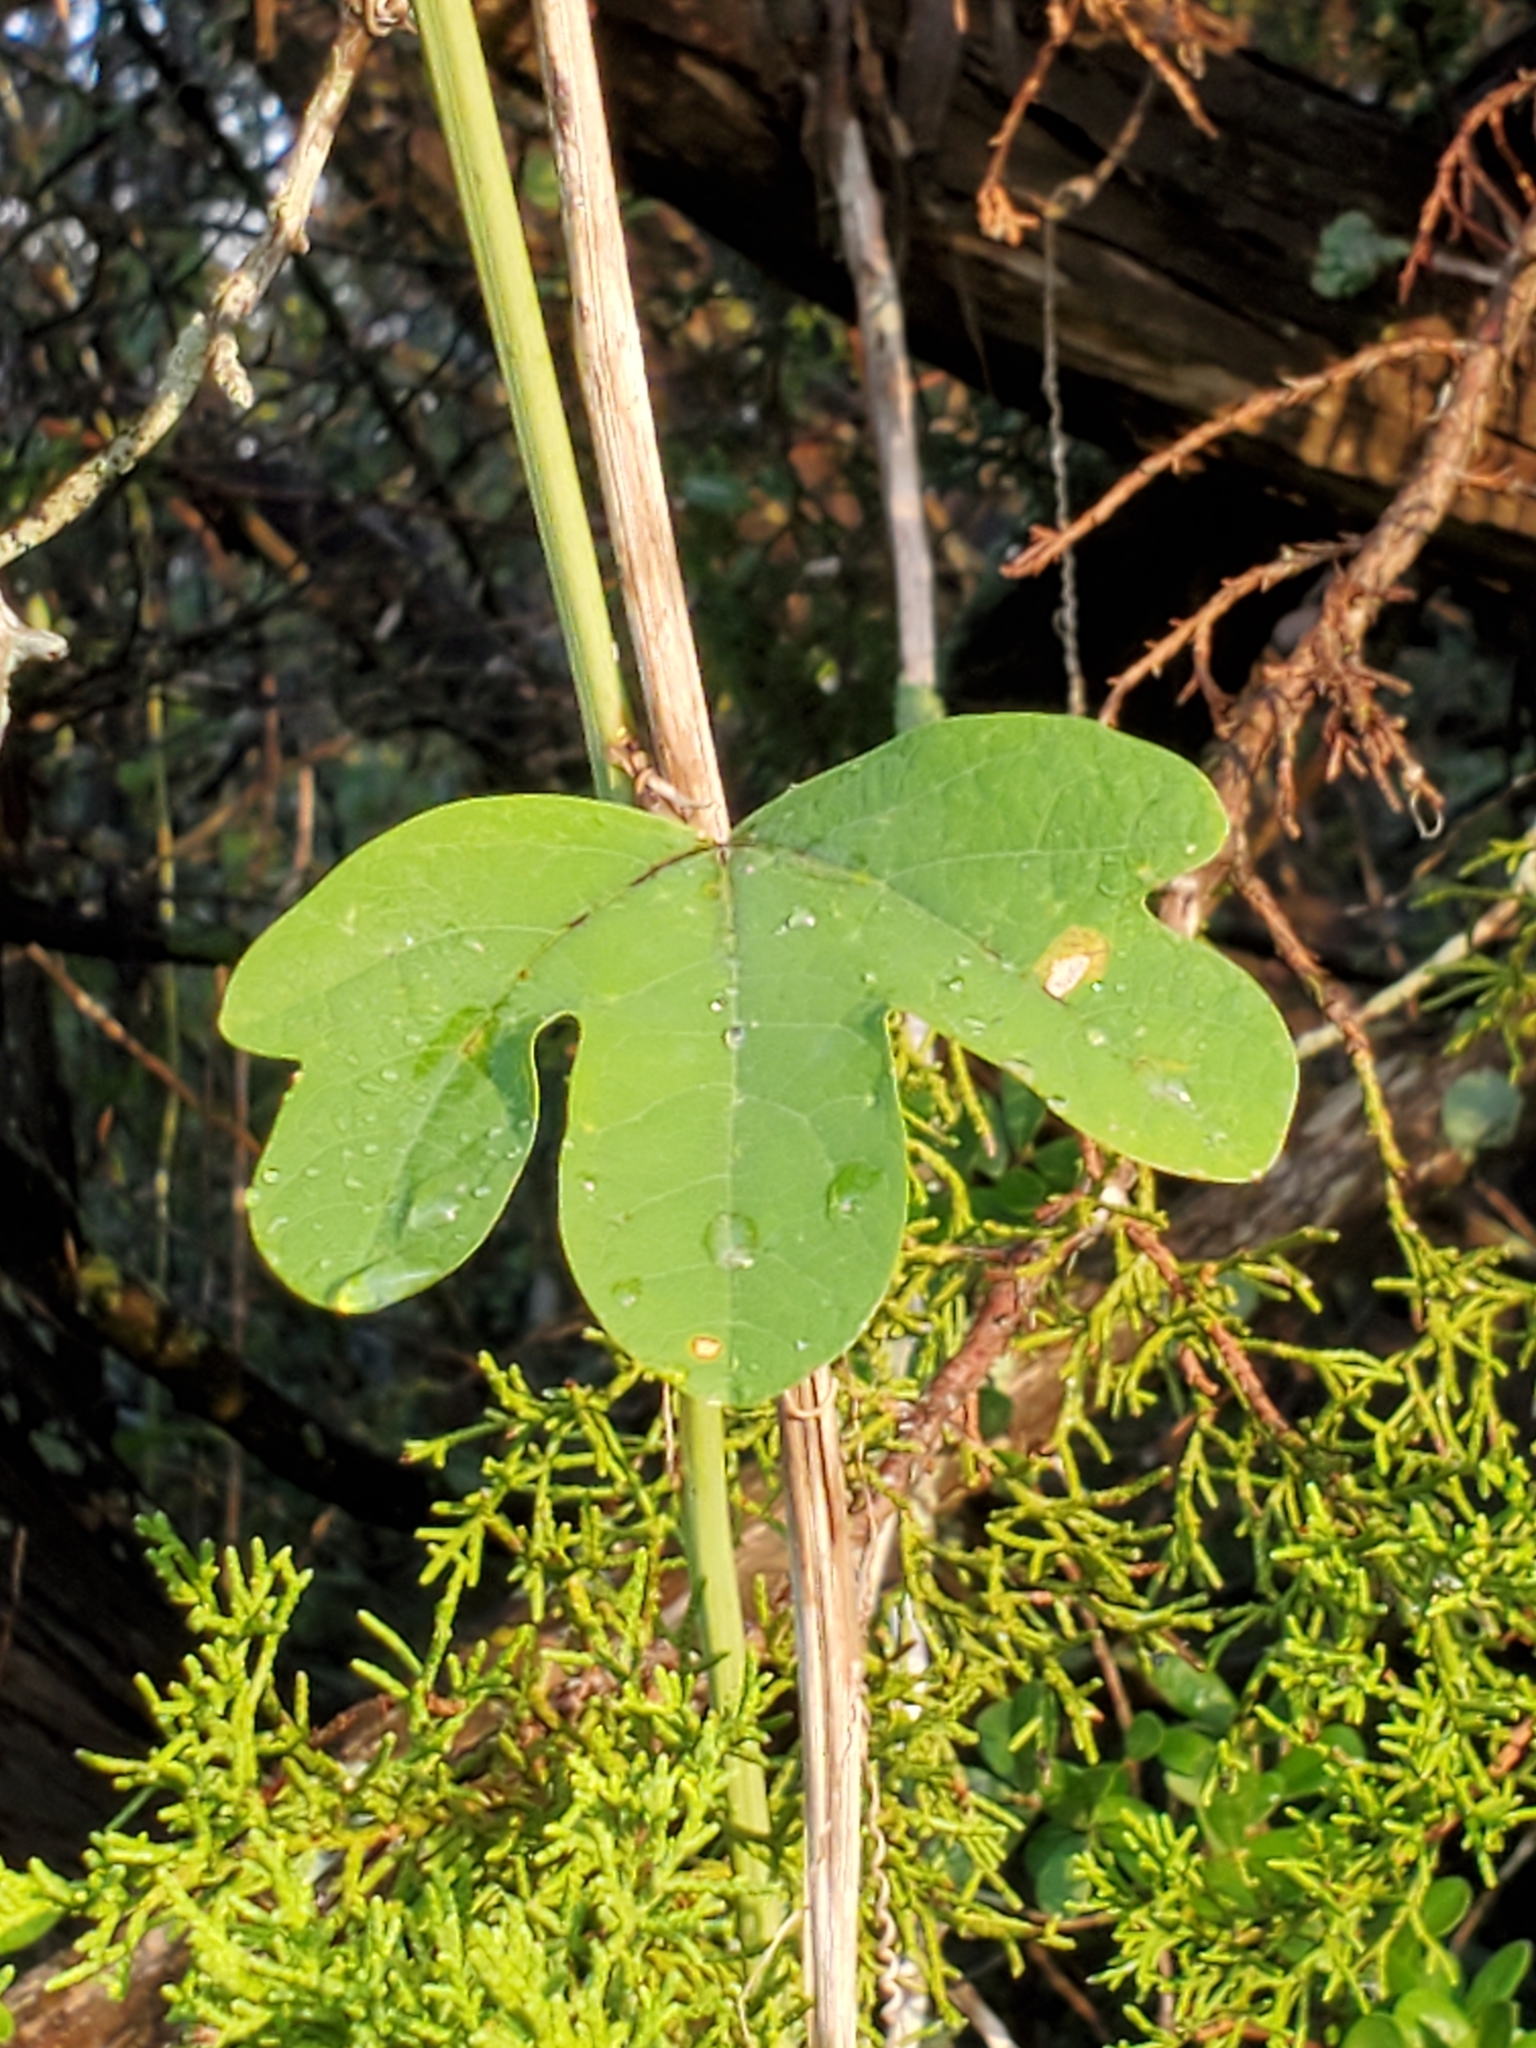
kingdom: Plantae
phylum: Tracheophyta
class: Magnoliopsida
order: Malpighiales
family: Passifloraceae
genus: Passiflora
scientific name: Passiflora affinis
